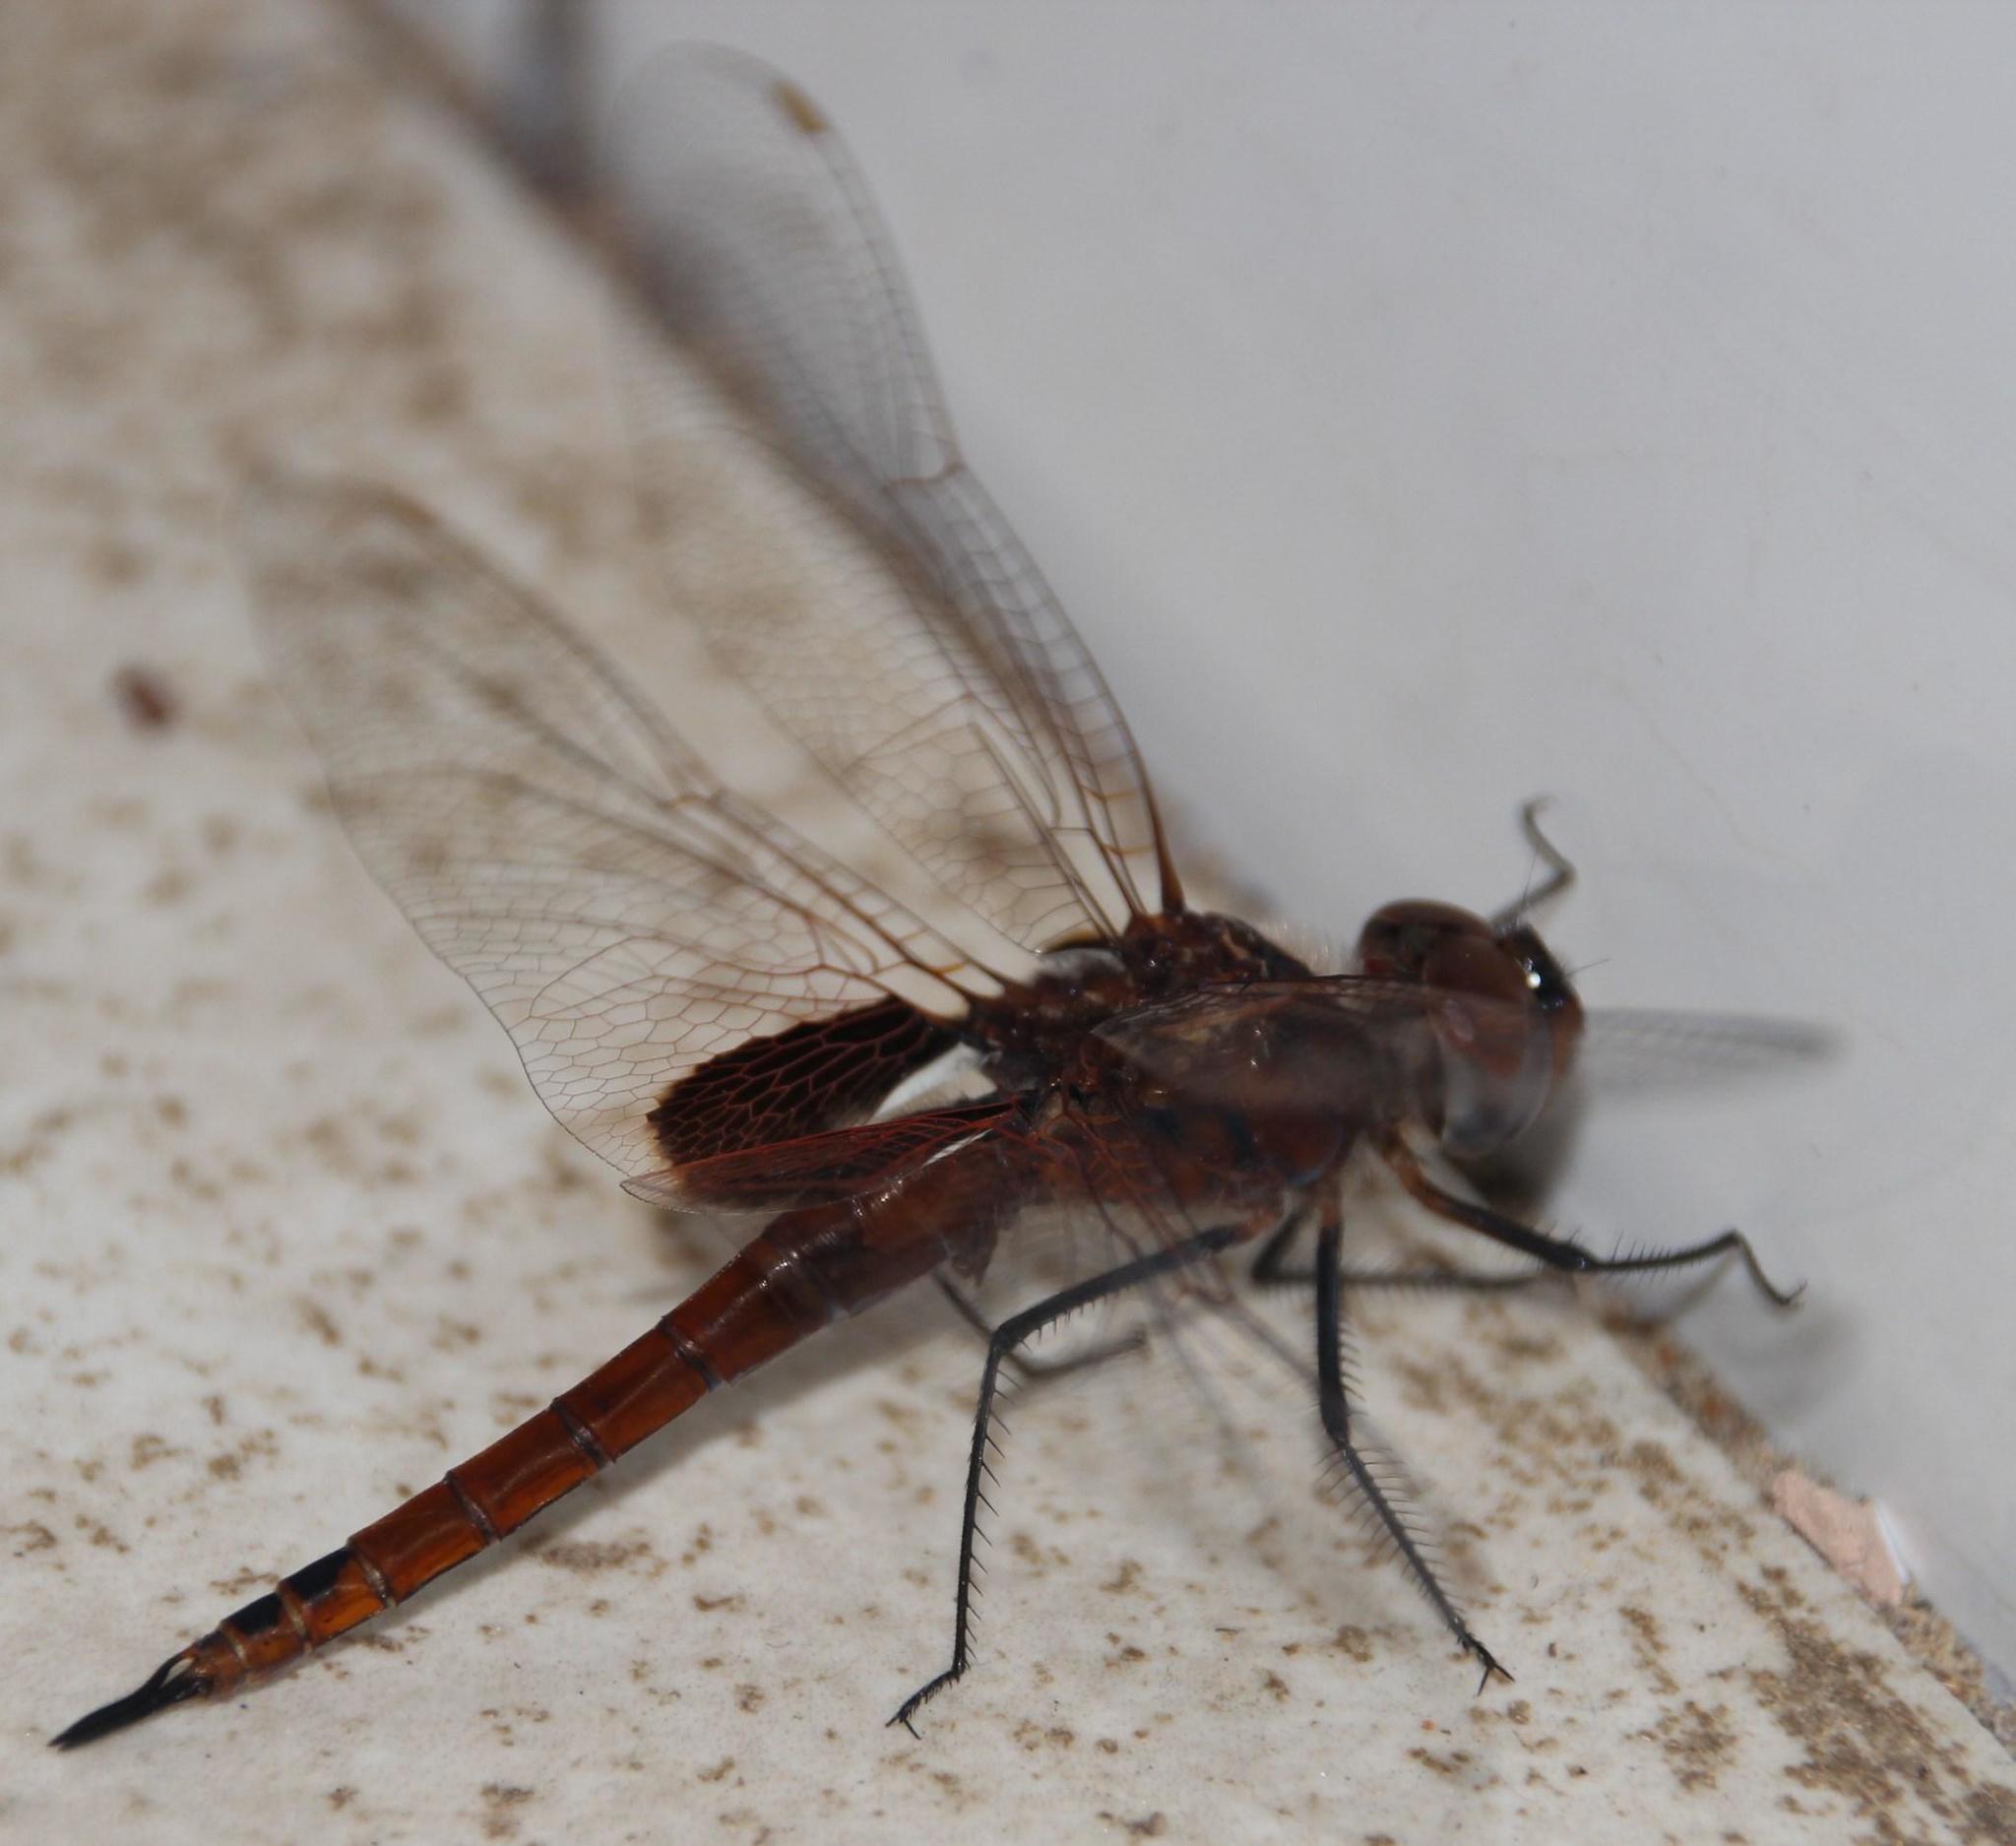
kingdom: Animalia
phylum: Arthropoda
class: Insecta
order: Odonata
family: Libellulidae
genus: Tramea
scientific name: Tramea limbata
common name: Ferruginous glider
